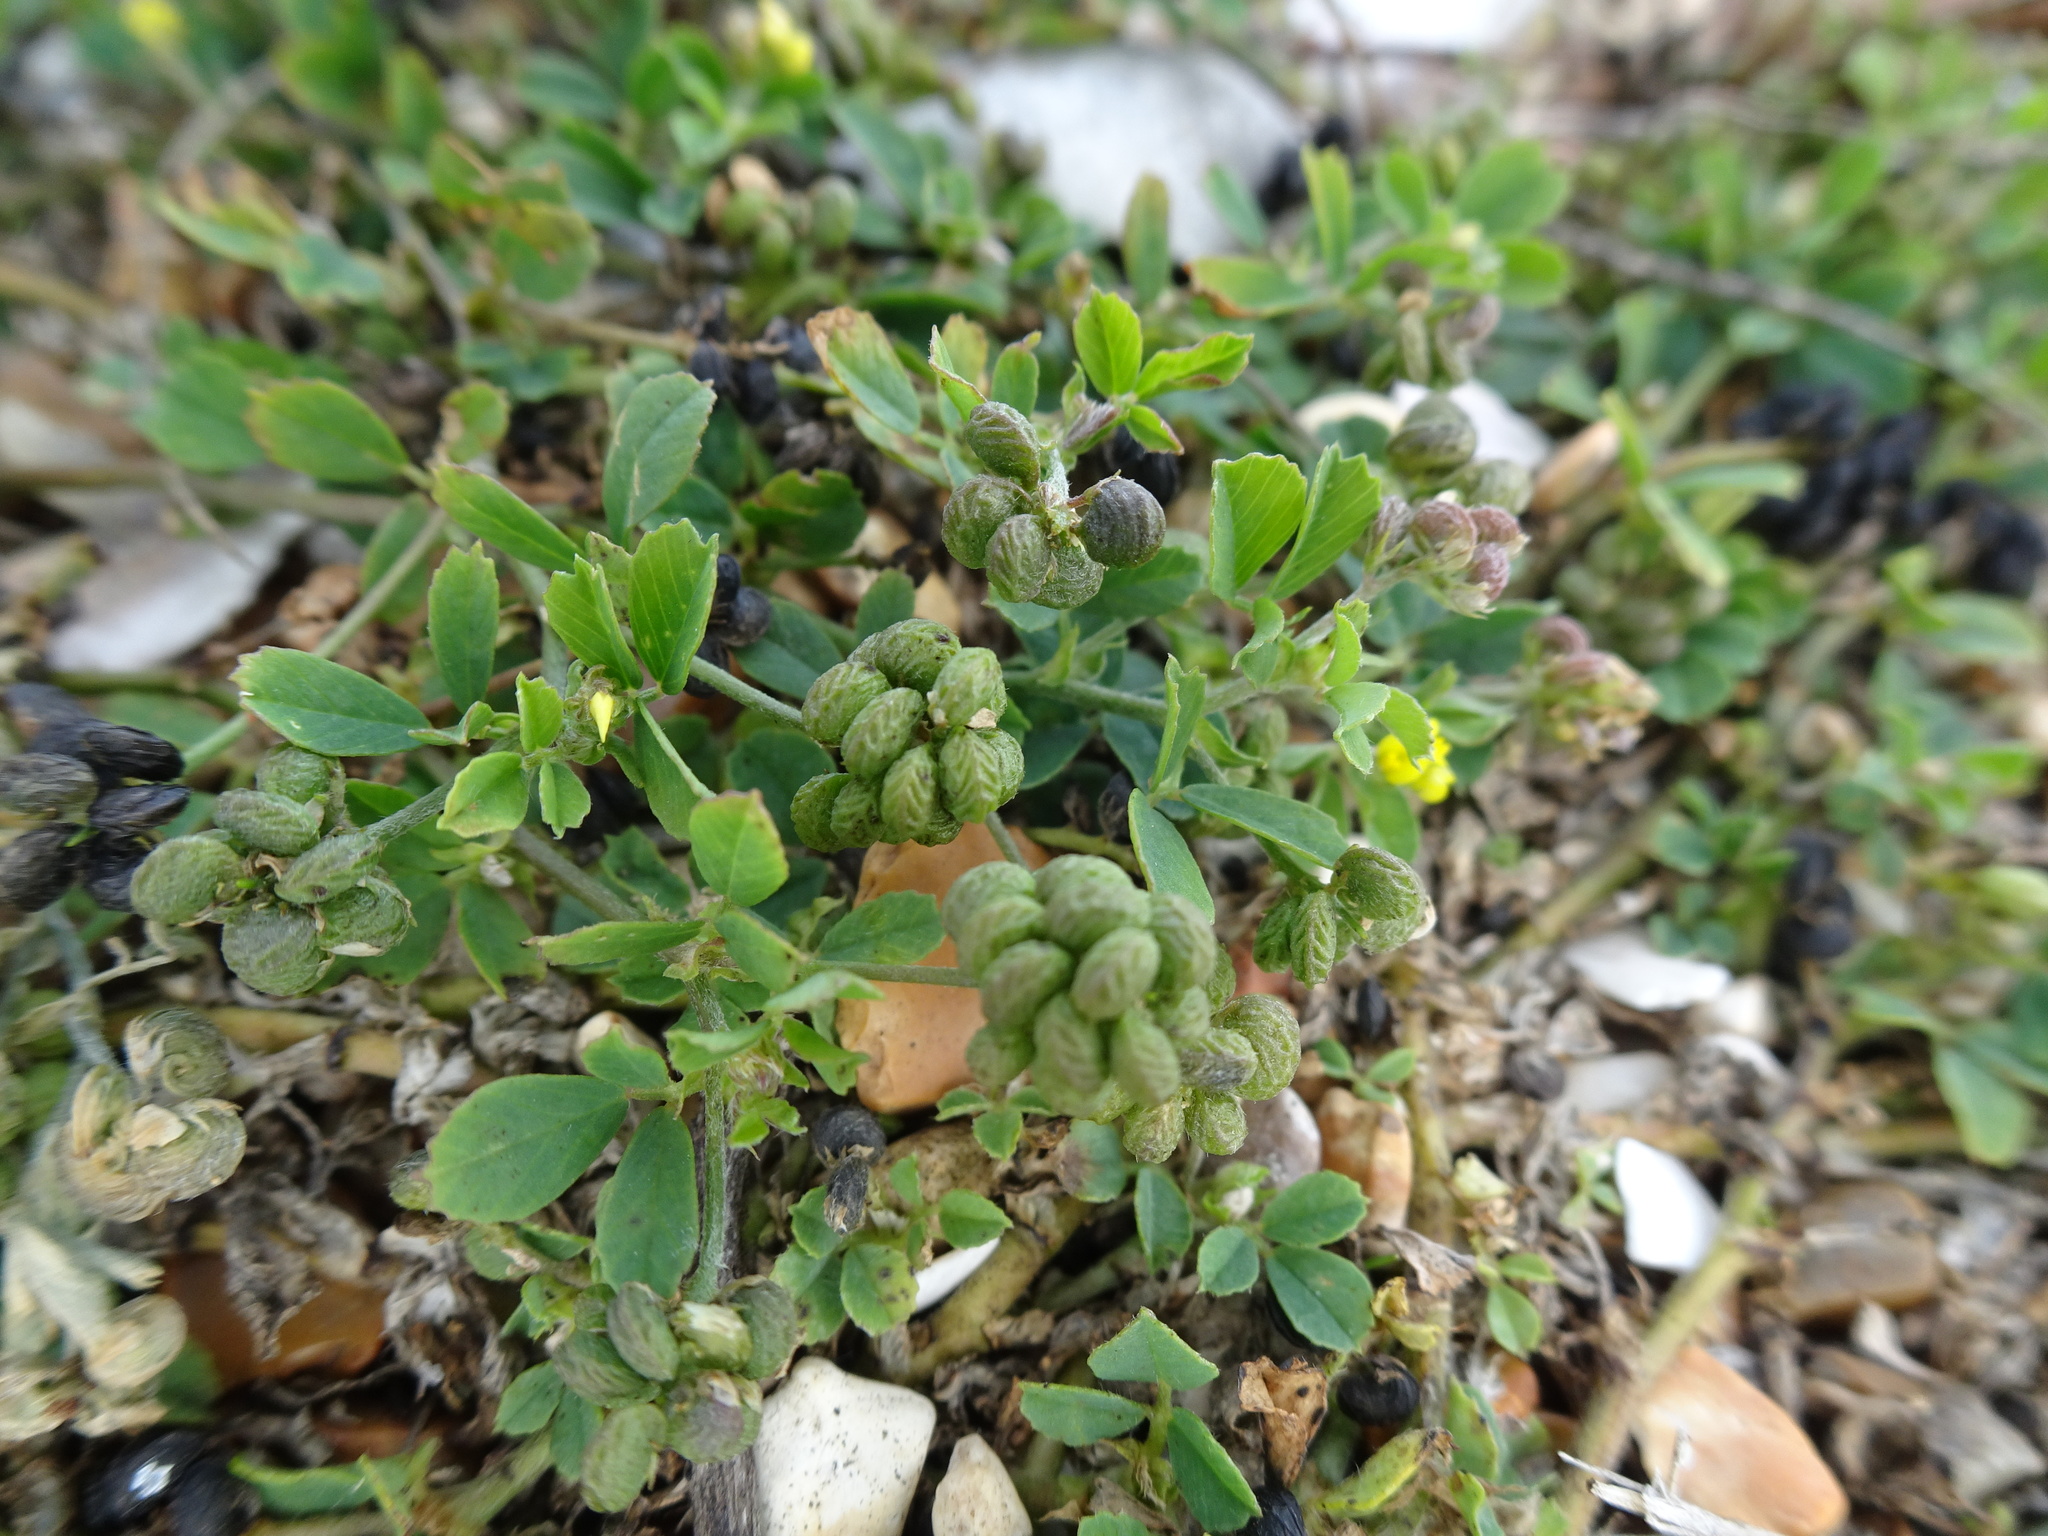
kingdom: Plantae
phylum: Tracheophyta
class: Magnoliopsida
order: Fabales
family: Fabaceae
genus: Medicago
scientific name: Medicago lupulina
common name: Black medick
